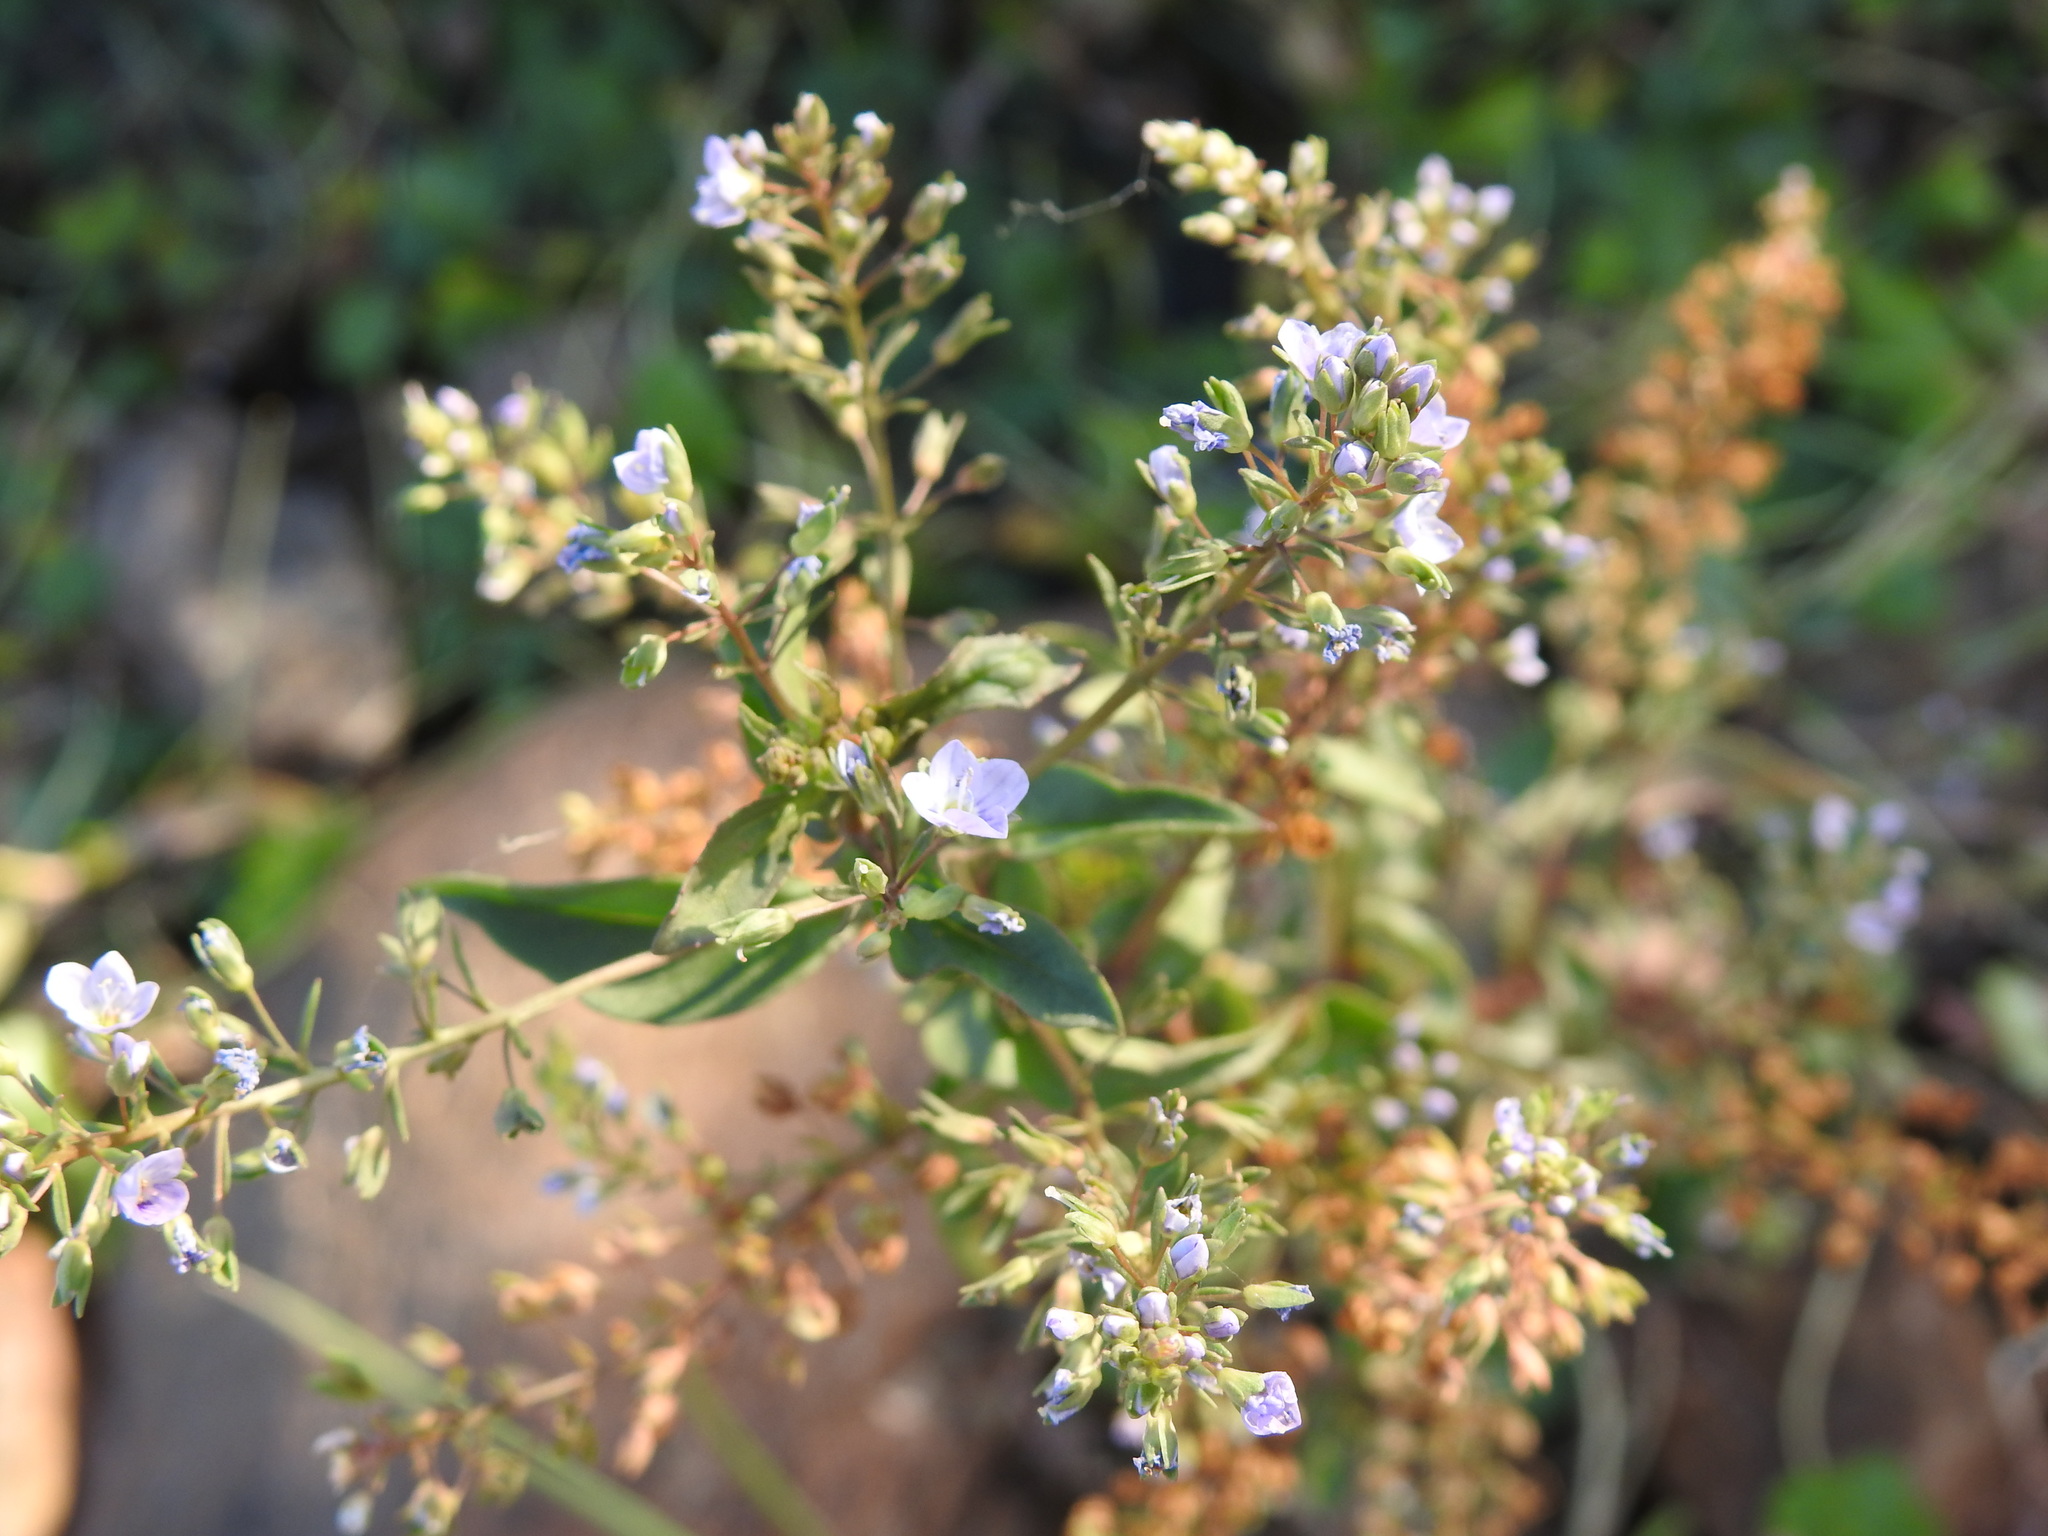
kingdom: Plantae
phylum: Tracheophyta
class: Magnoliopsida
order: Lamiales
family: Plantaginaceae
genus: Veronica
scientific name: Veronica anagallis-aquatica
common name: Water speedwell
